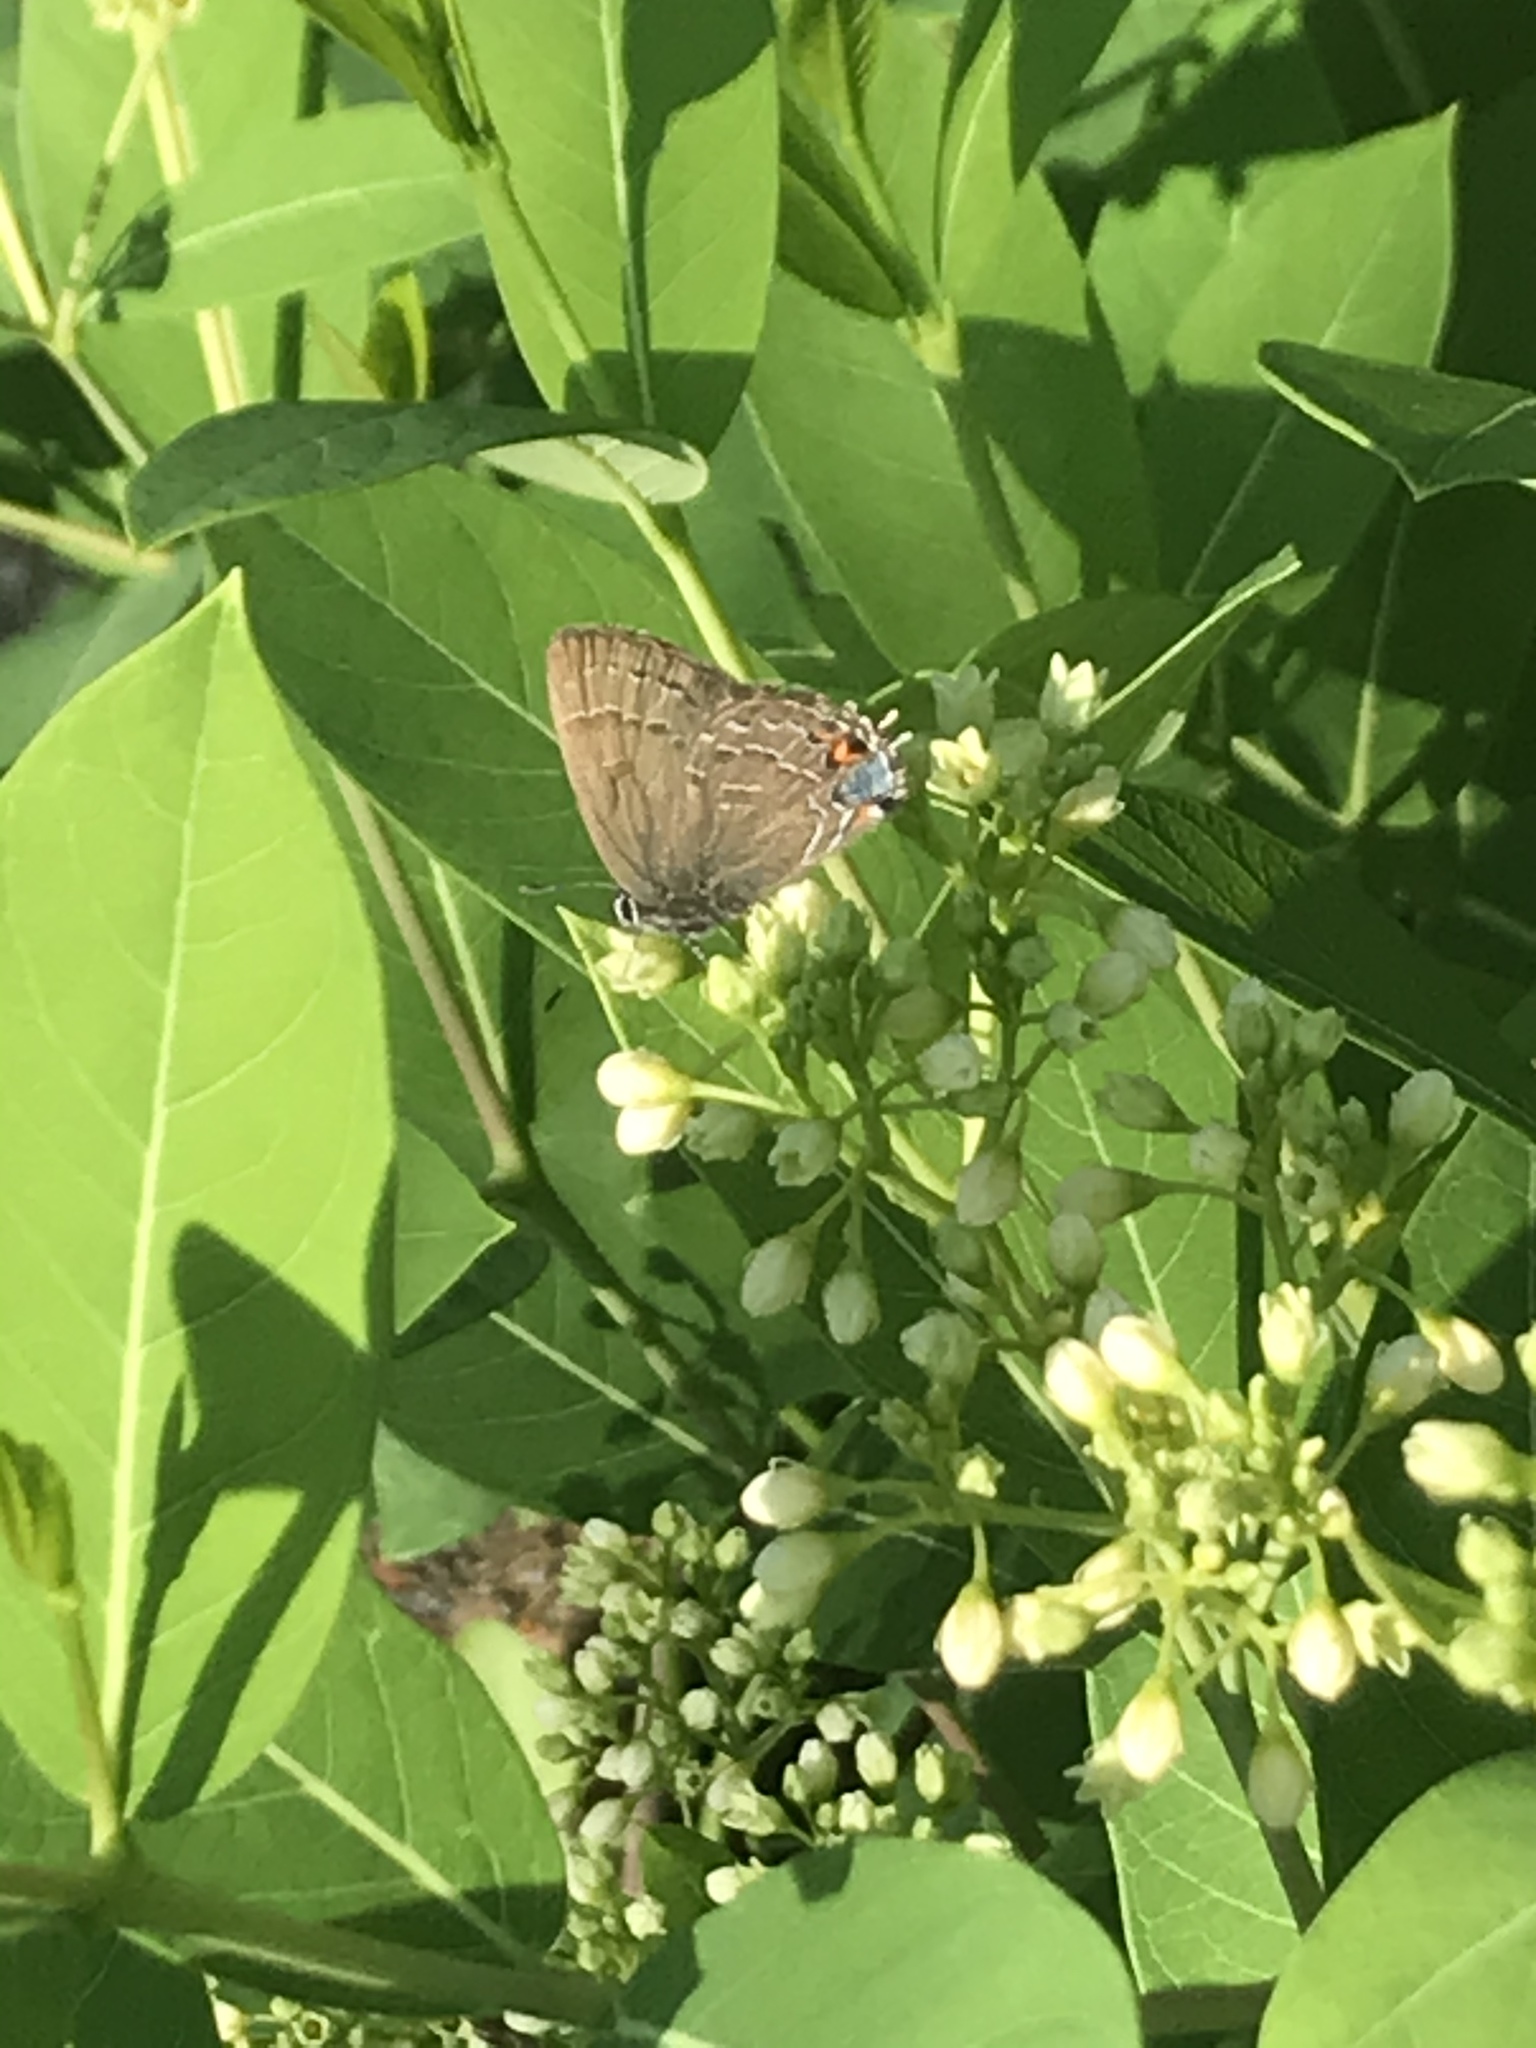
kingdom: Animalia
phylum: Arthropoda
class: Insecta
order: Lepidoptera
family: Lycaenidae
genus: Satyrium
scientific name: Satyrium calanus
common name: Banded hairstreak
